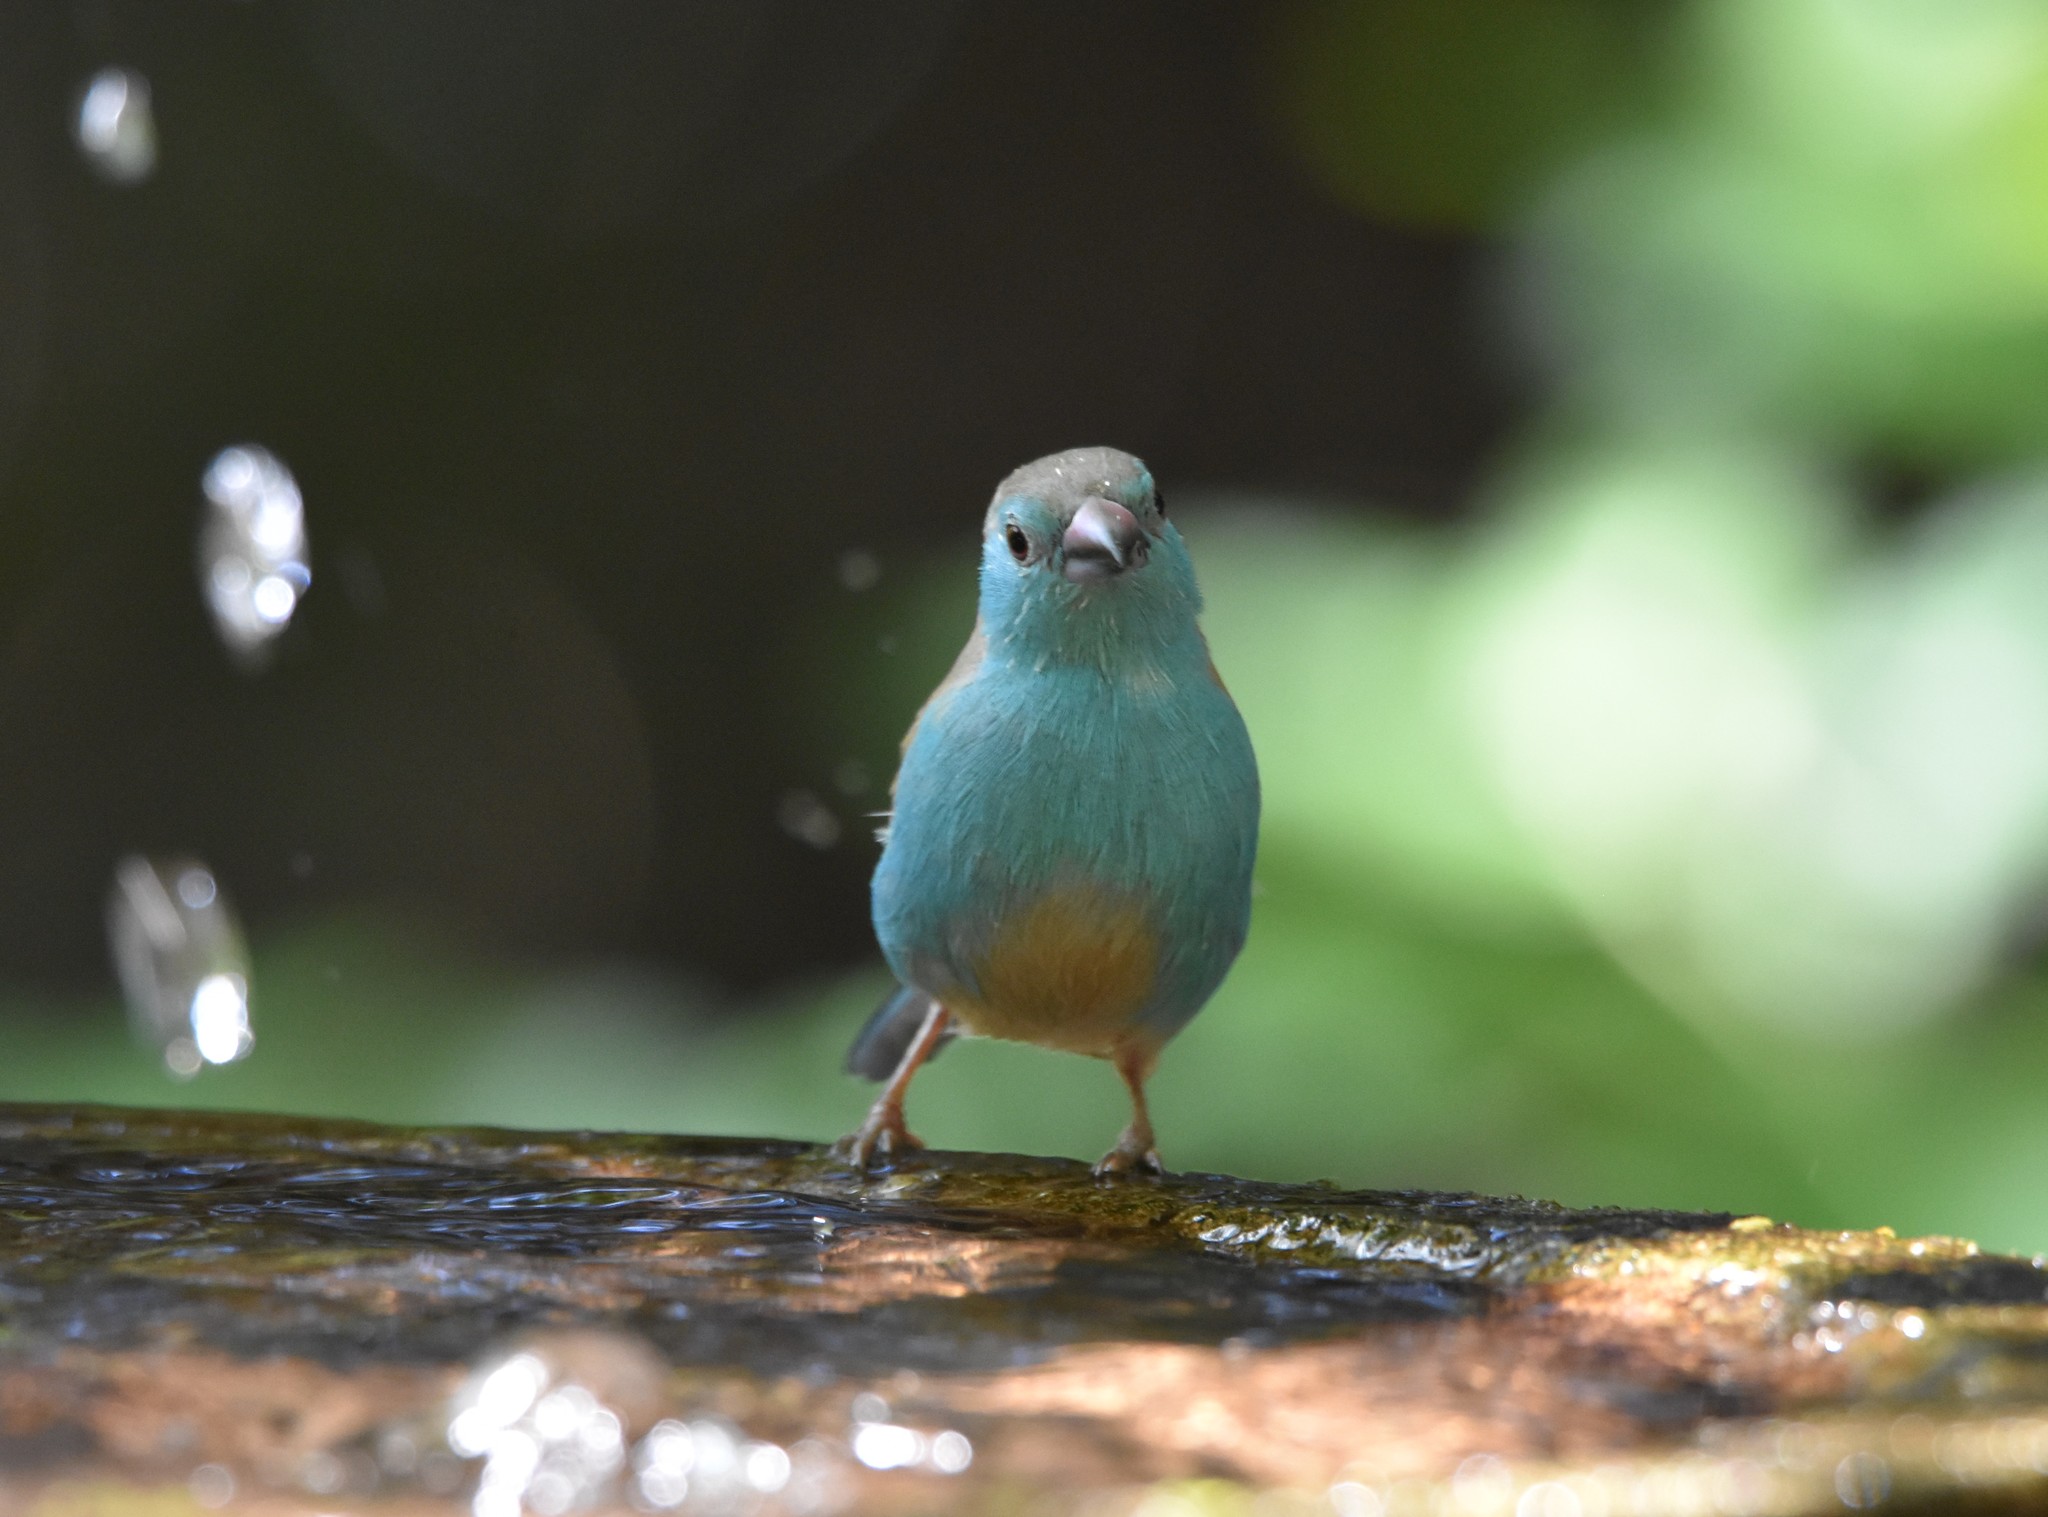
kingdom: Animalia
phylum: Chordata
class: Aves
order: Passeriformes
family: Estrildidae
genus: Uraeginthus
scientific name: Uraeginthus angolensis
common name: Blue waxbill
